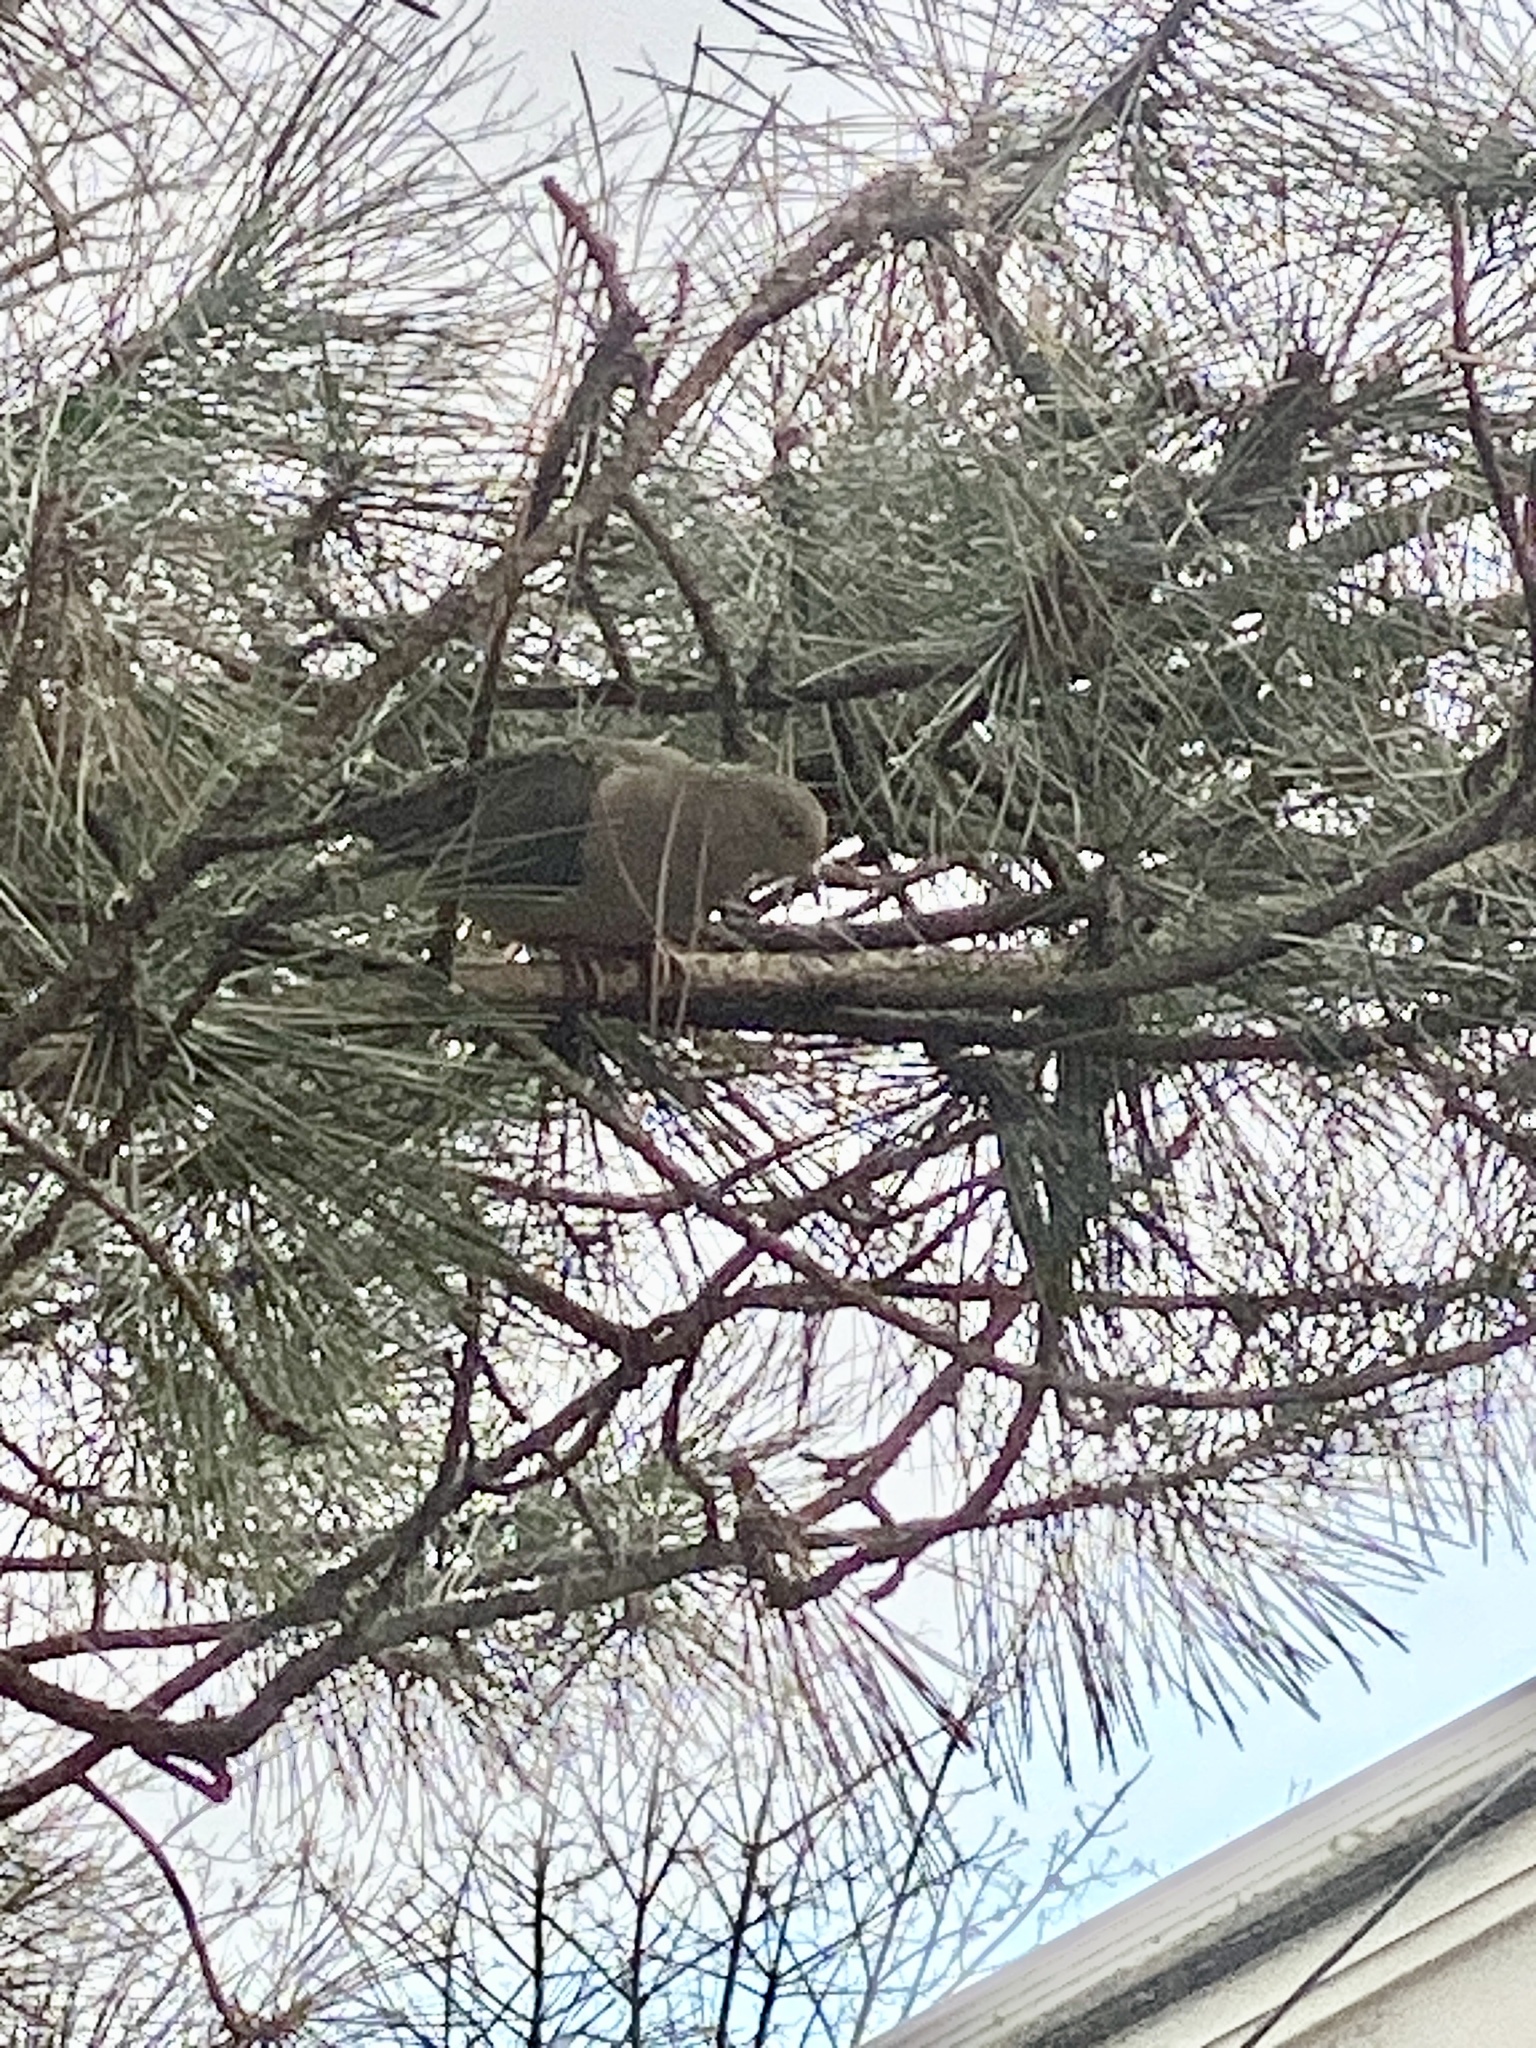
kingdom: Animalia
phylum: Chordata
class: Aves
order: Columbiformes
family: Columbidae
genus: Zenaida
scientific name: Zenaida macroura
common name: Mourning dove
